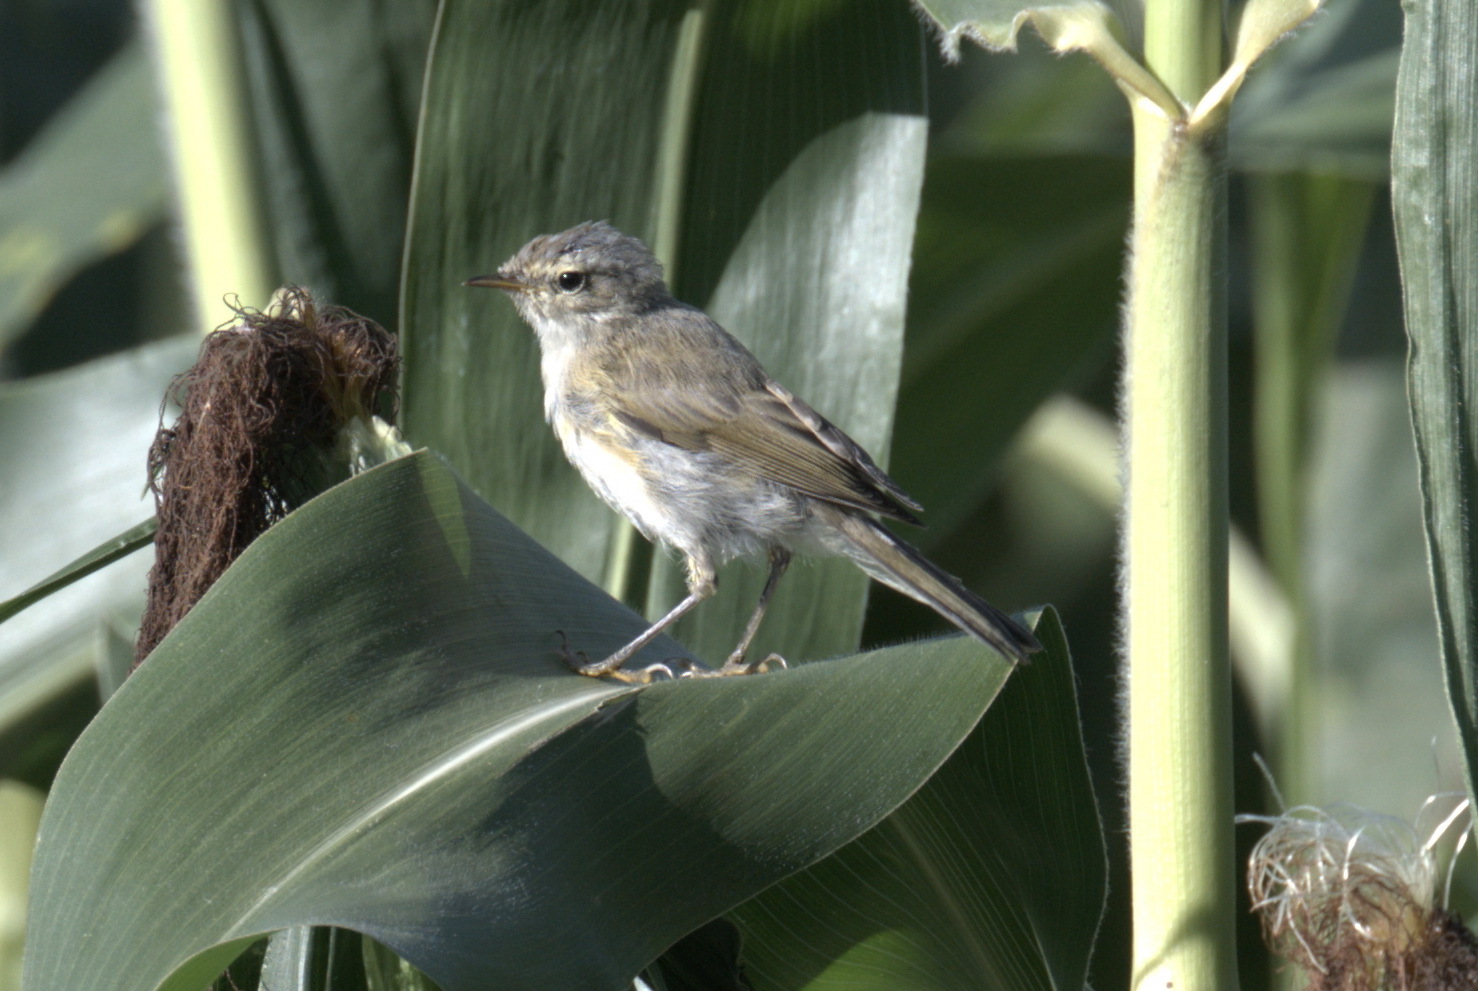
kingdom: Animalia
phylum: Chordata
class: Aves
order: Passeriformes
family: Phylloscopidae
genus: Phylloscopus
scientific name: Phylloscopus collybita
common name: Common chiffchaff
